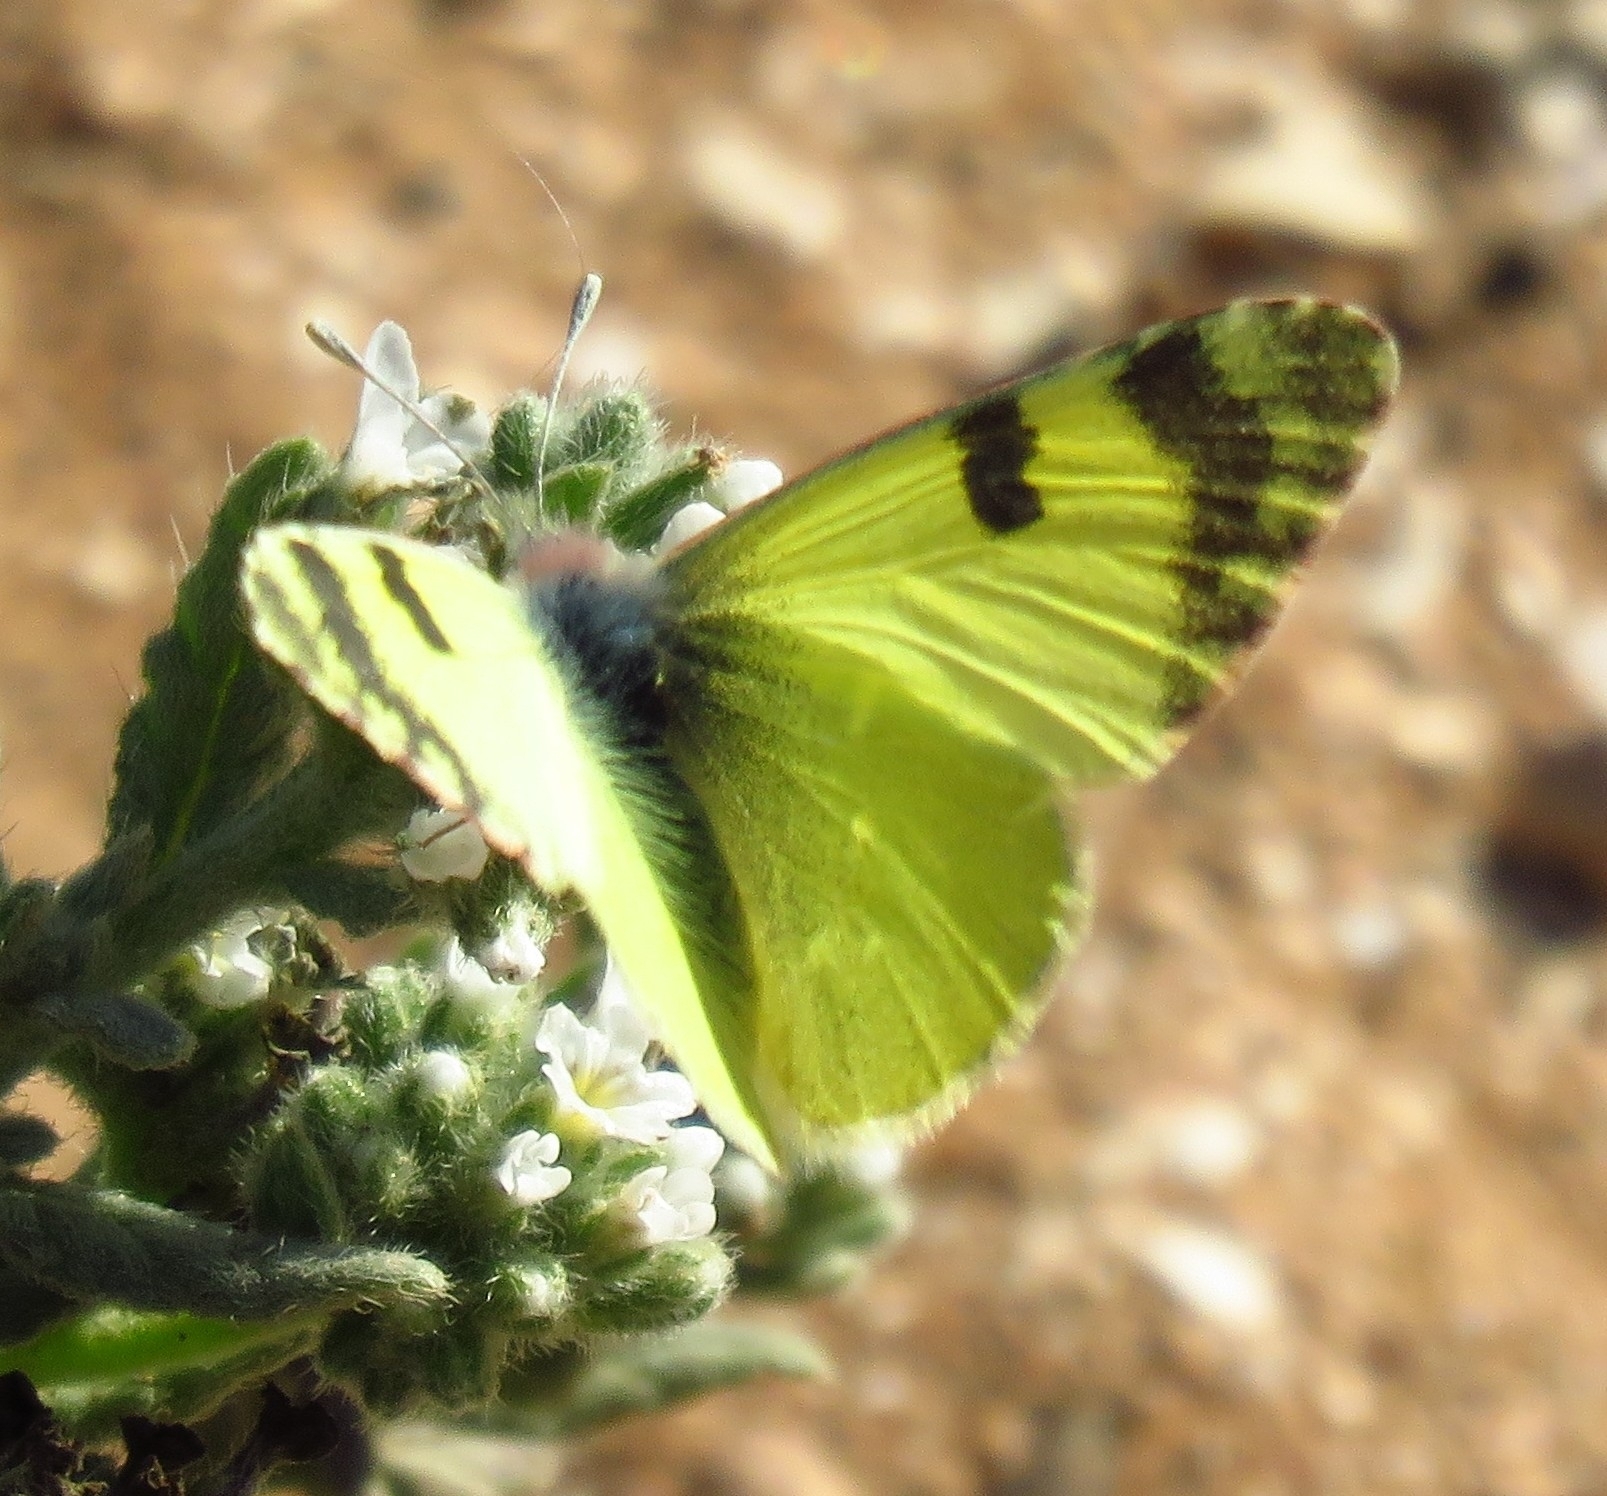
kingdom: Animalia
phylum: Arthropoda
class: Insecta
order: Lepidoptera
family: Pieridae
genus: Elphinstonia
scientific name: Elphinstonia charlonia
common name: Greenish black-tip
